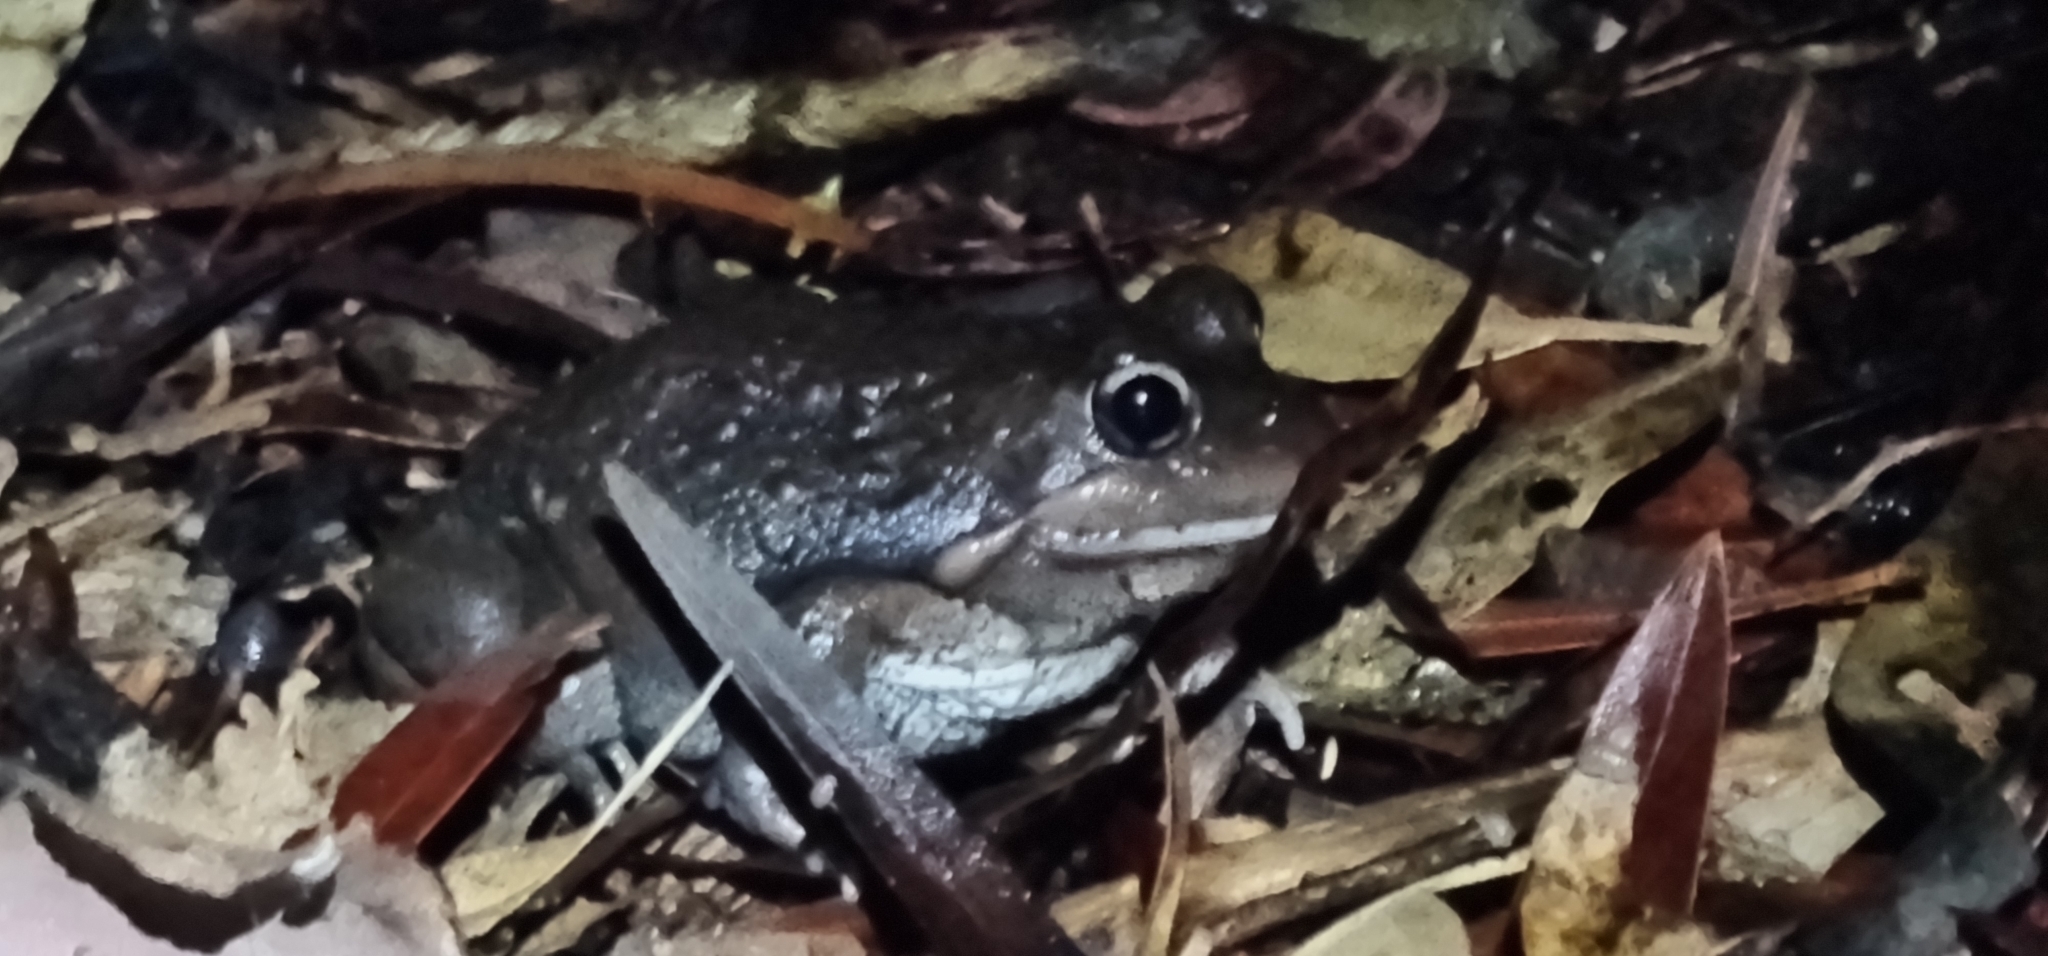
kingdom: Animalia
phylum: Chordata
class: Amphibia
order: Anura
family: Limnodynastidae
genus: Limnodynastes
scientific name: Limnodynastes dumerilii
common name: Banjo frog
